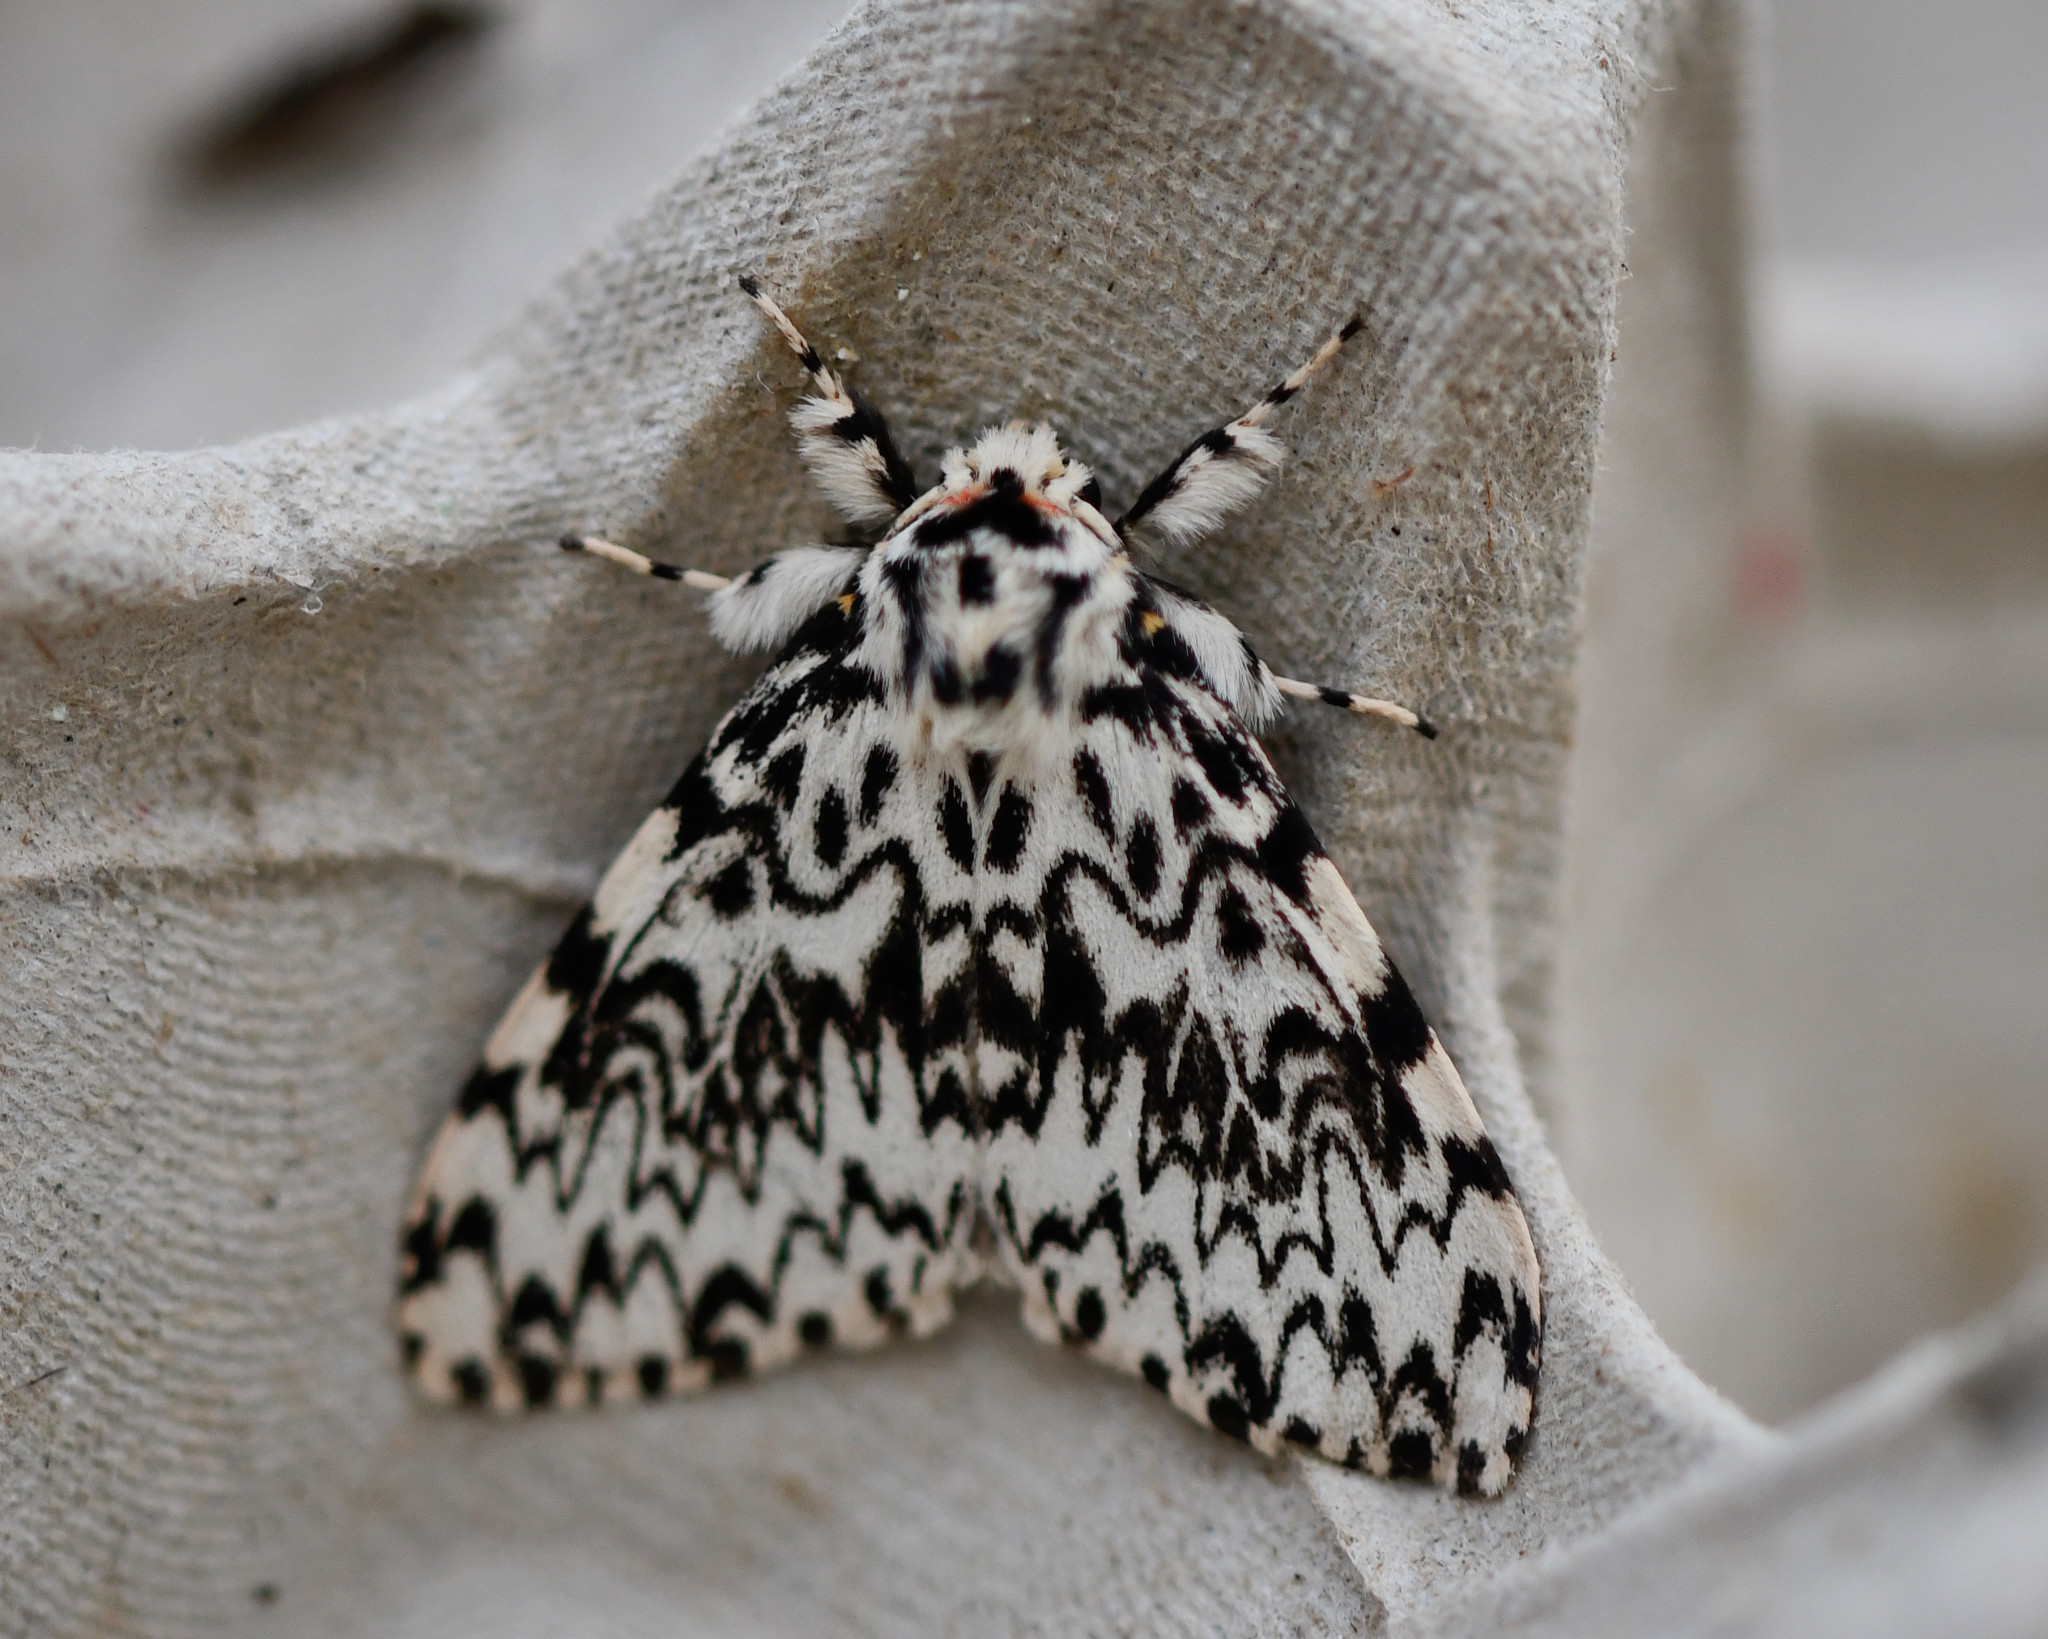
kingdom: Animalia
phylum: Arthropoda
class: Insecta
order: Lepidoptera
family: Erebidae
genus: Lymantria
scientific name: Lymantria monacha
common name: Black arches
